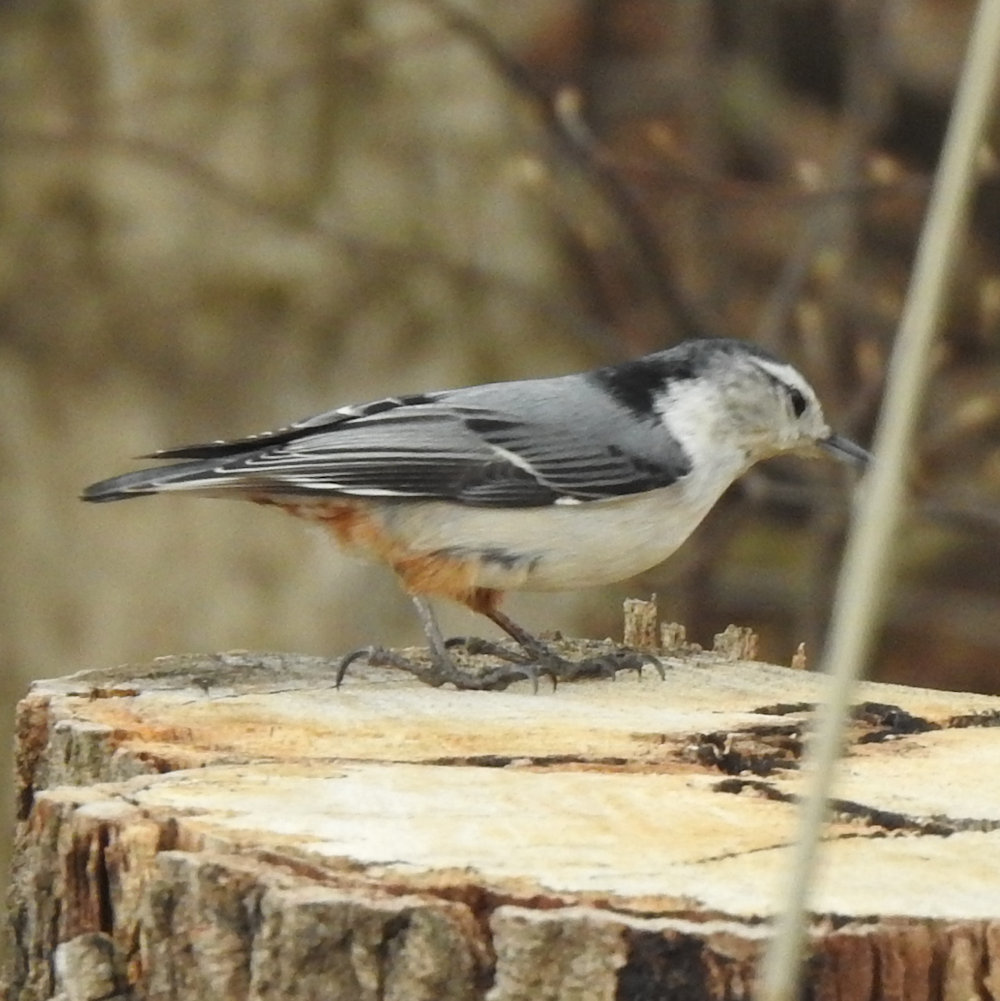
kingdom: Animalia
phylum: Chordata
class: Aves
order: Passeriformes
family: Sittidae
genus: Sitta
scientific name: Sitta carolinensis
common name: White-breasted nuthatch
